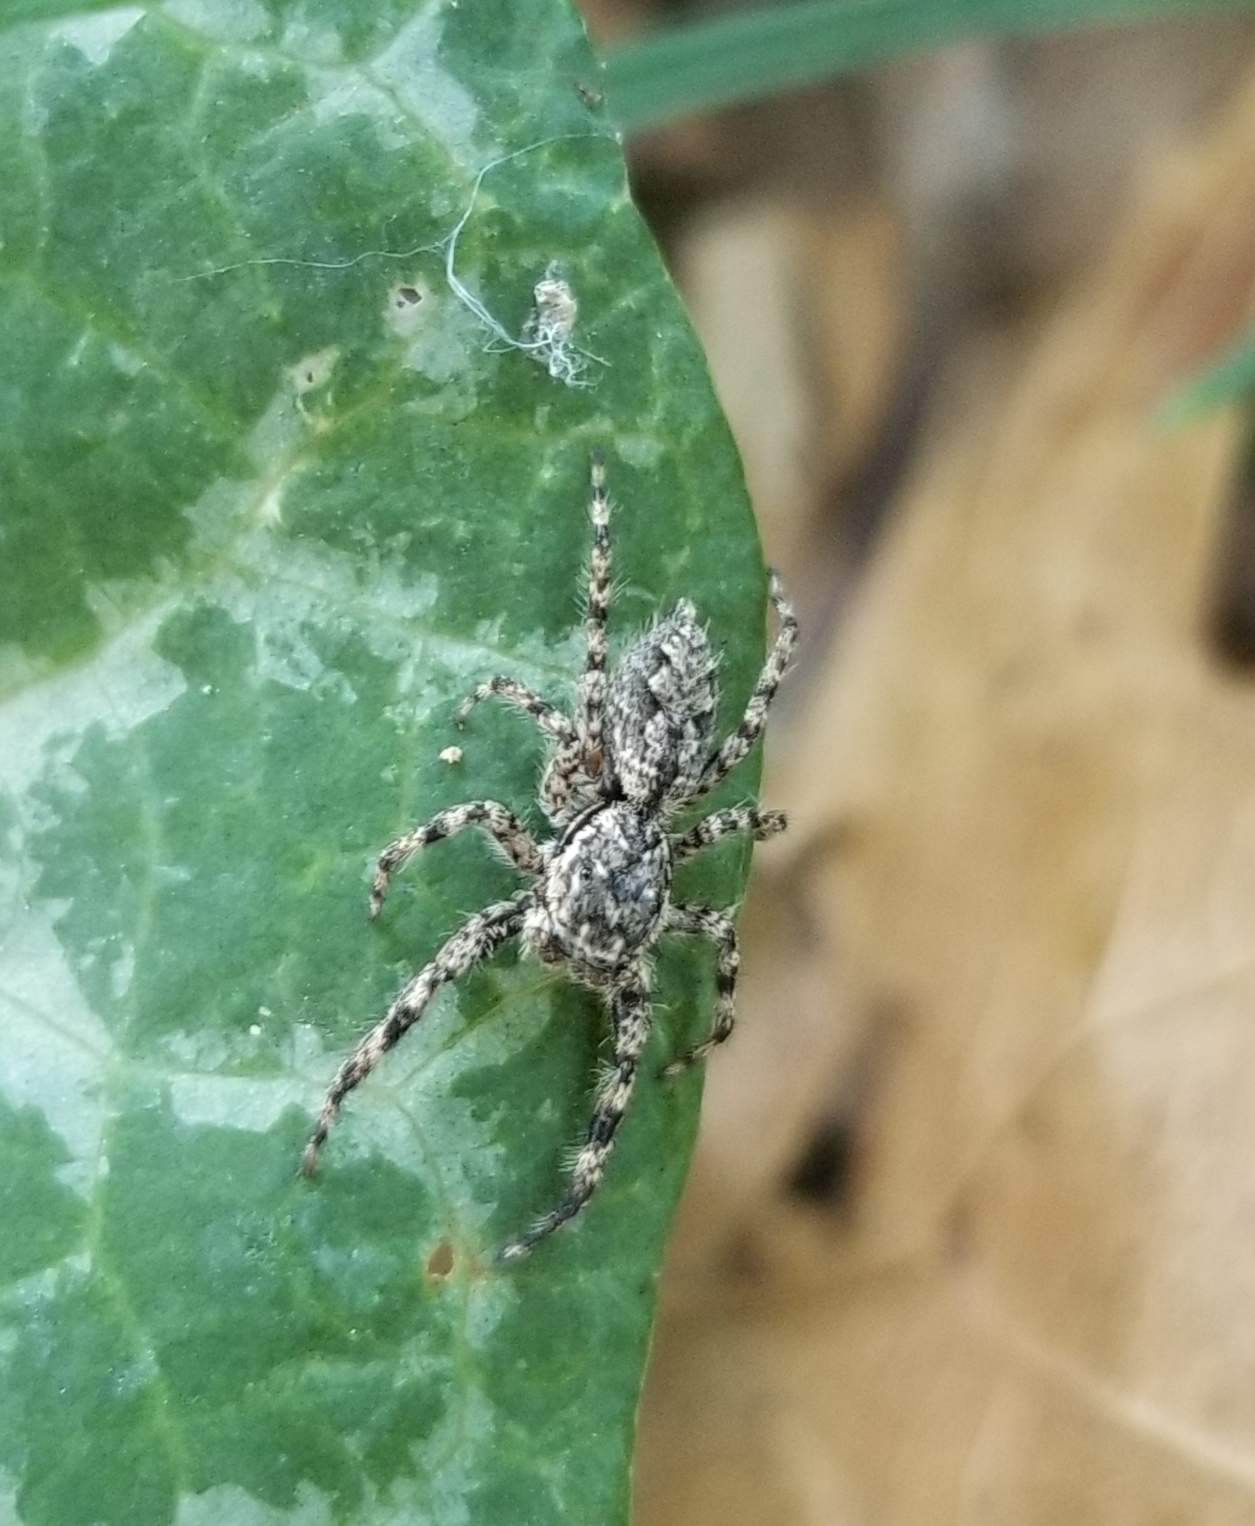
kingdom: Animalia
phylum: Arthropoda
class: Arachnida
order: Araneae
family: Salticidae
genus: Platycryptus
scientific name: Platycryptus undatus
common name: Tan jumping spider
